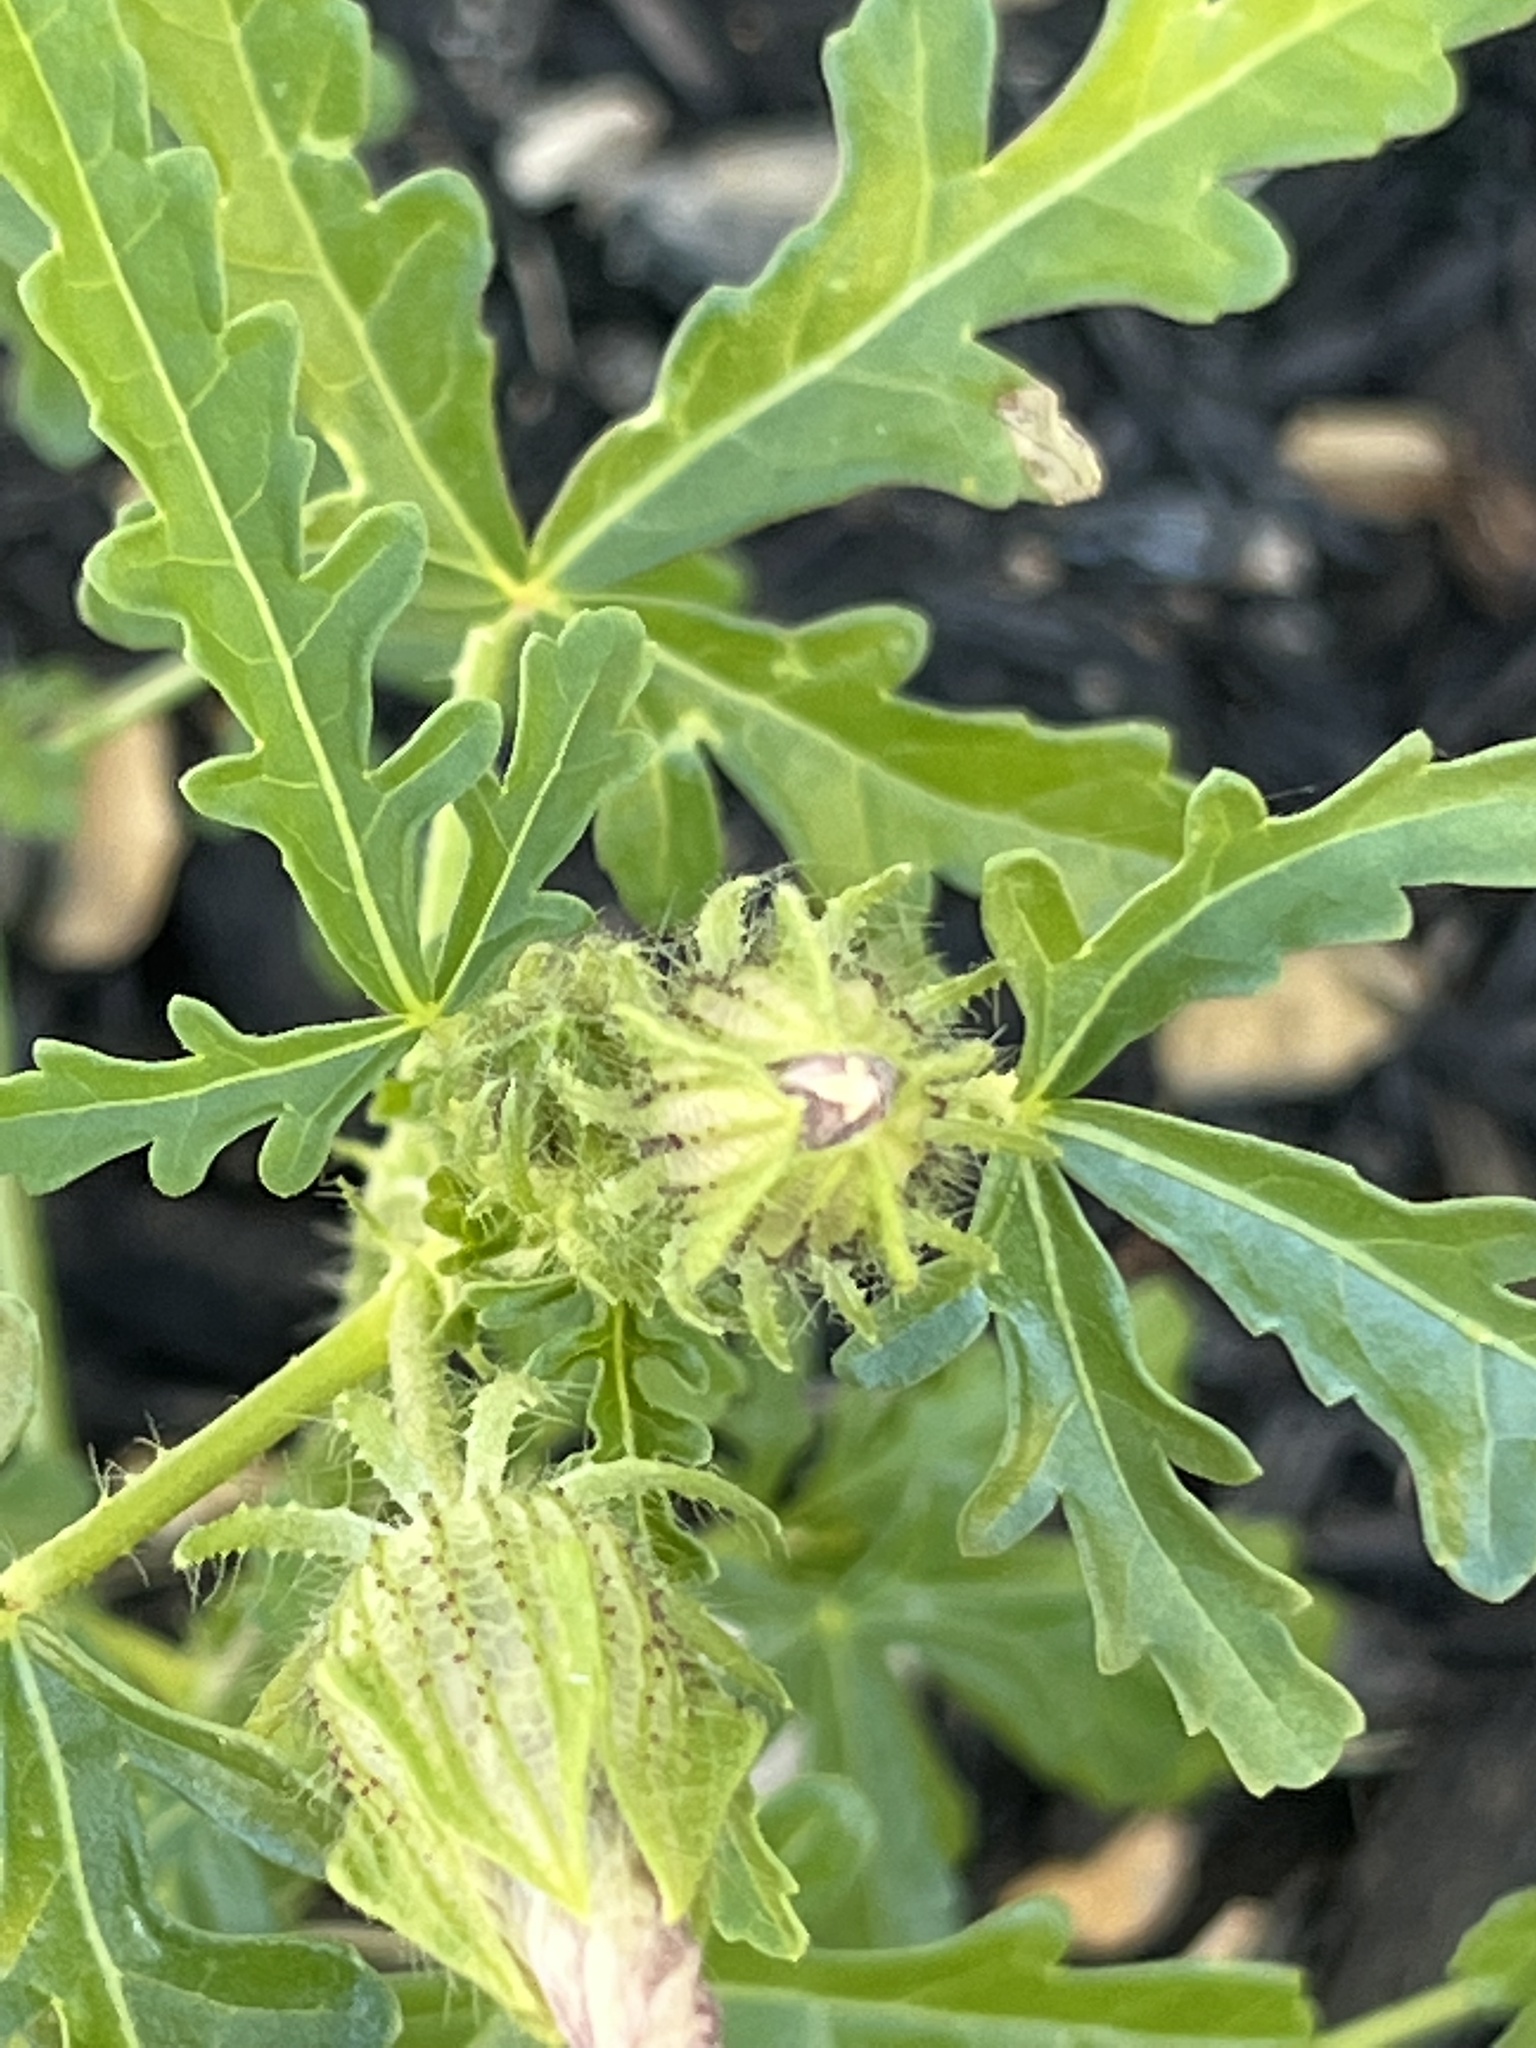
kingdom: Plantae
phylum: Tracheophyta
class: Magnoliopsida
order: Malvales
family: Malvaceae
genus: Hibiscus
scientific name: Hibiscus trionum
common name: Bladder ketmia
